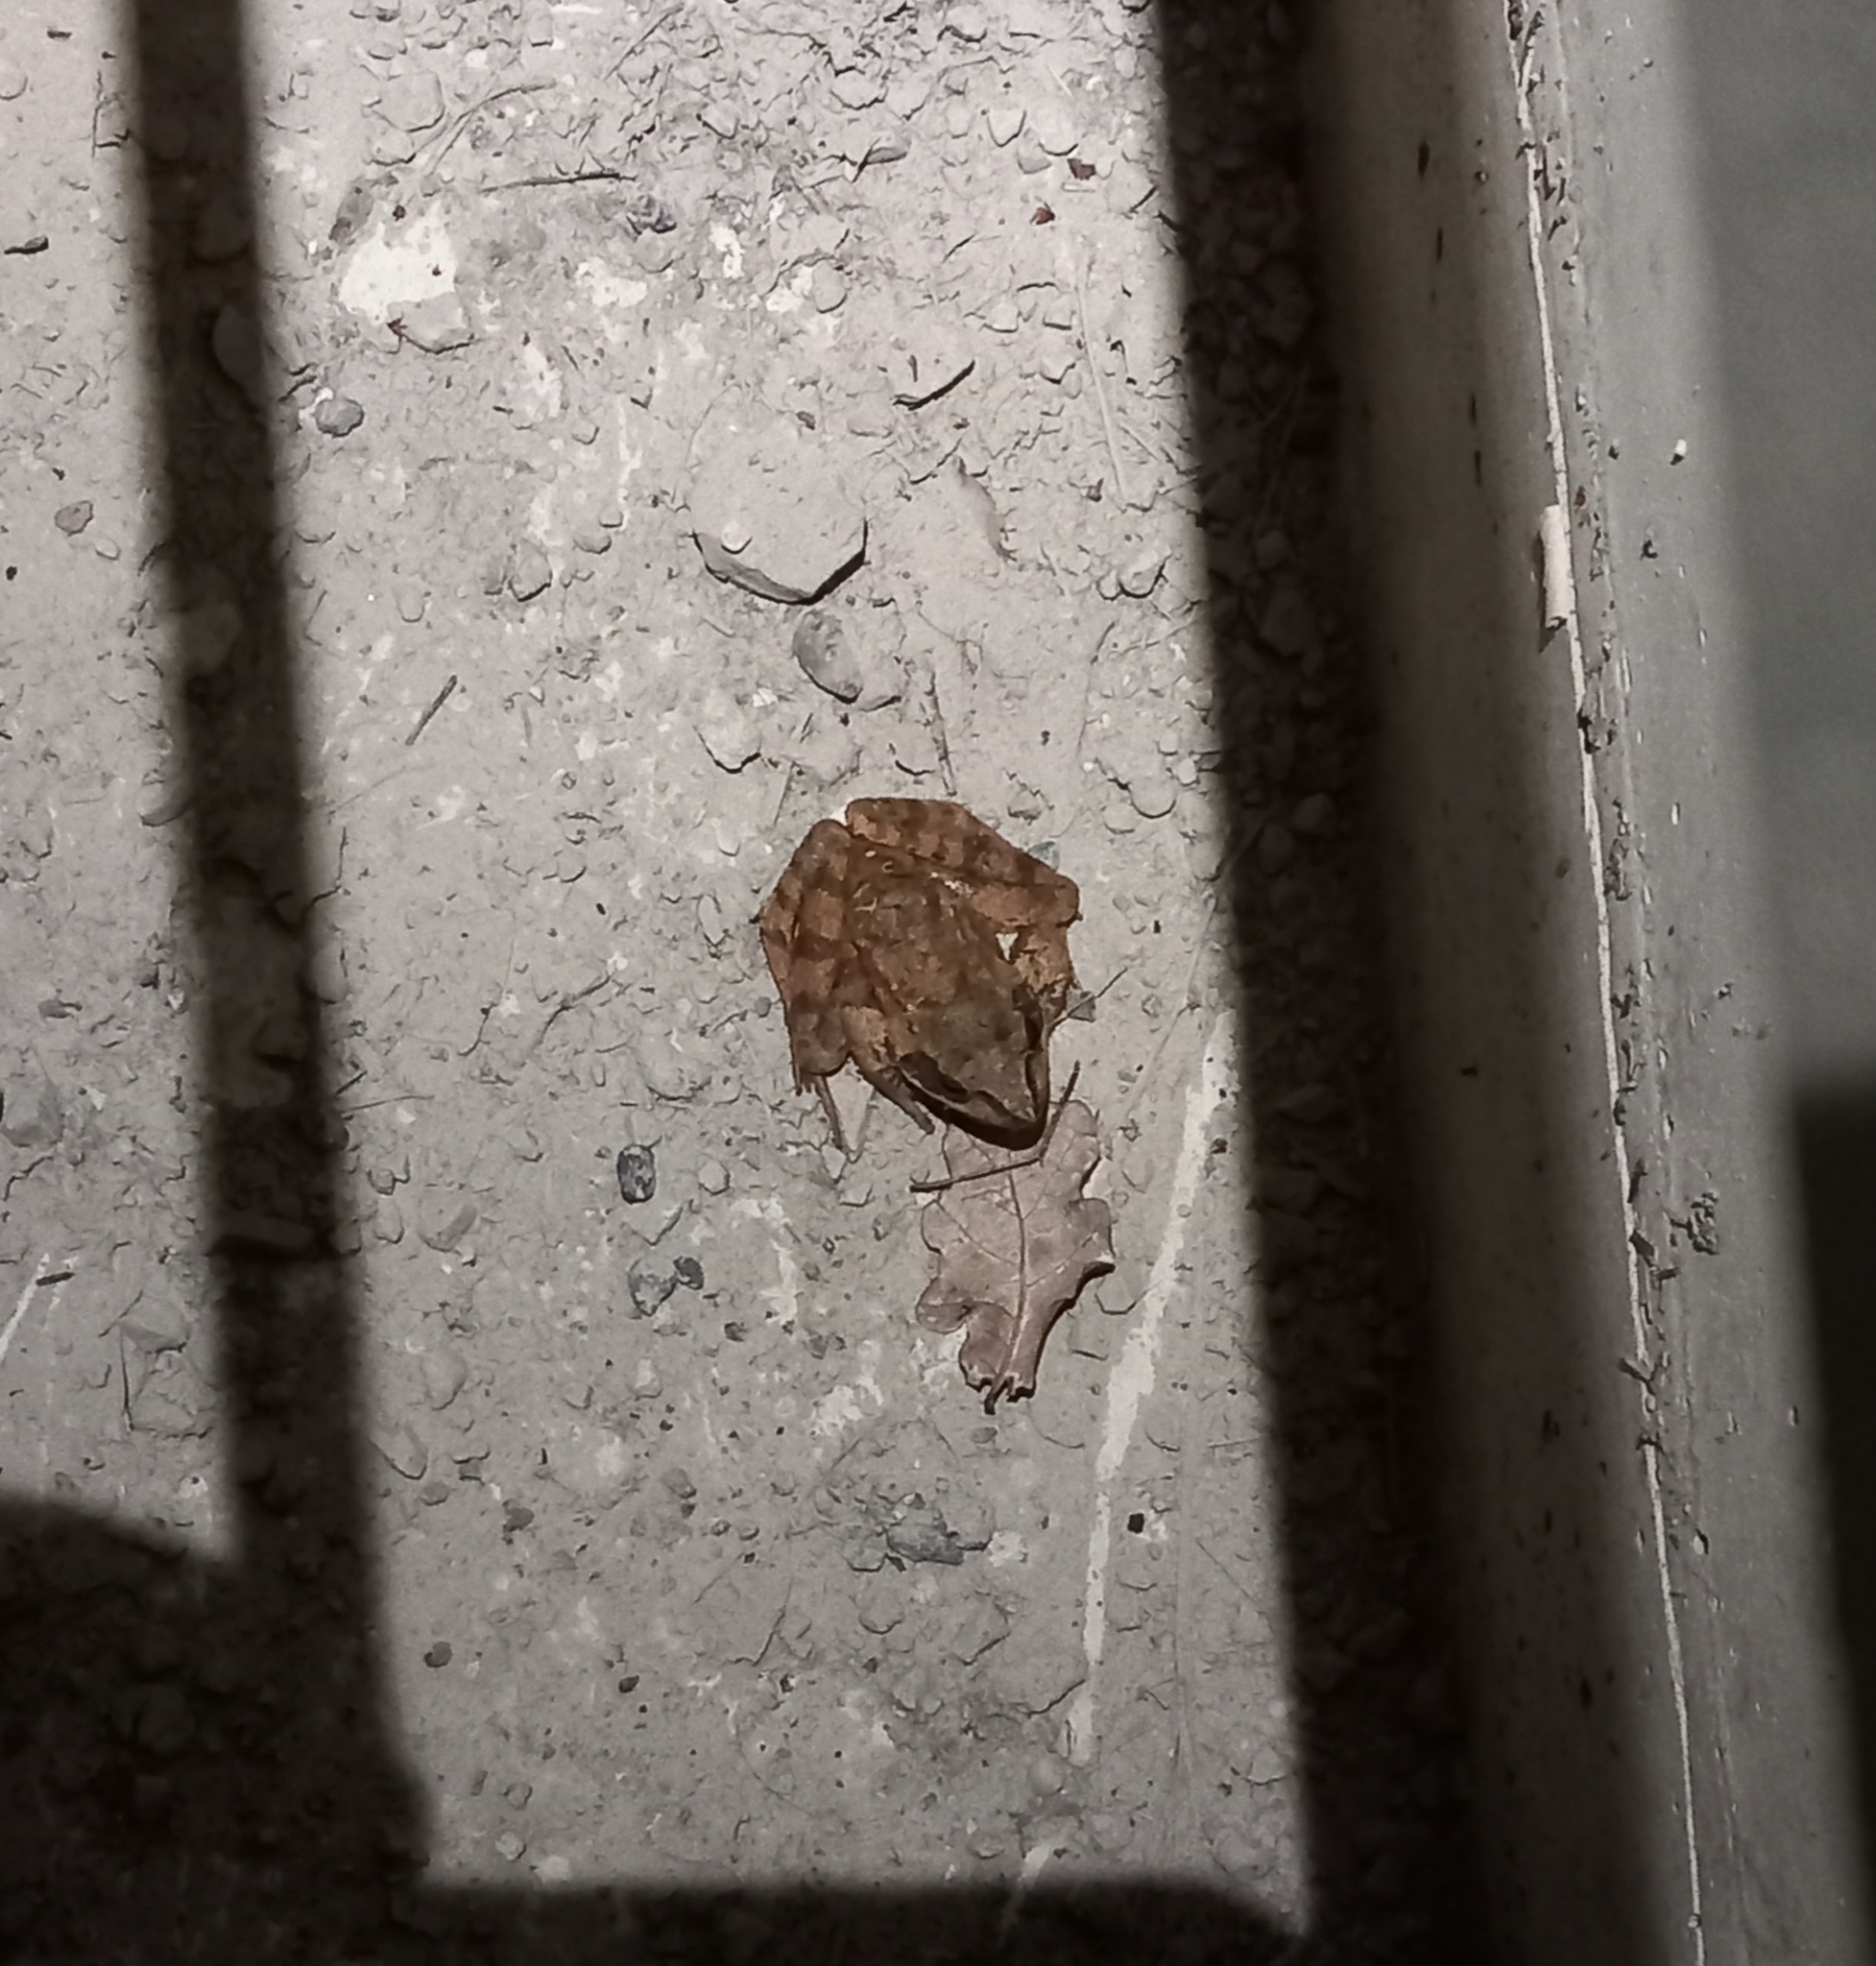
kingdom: Animalia
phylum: Chordata
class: Amphibia
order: Anura
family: Ranidae
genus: Rana
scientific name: Rana dalmatina
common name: Agile frog
